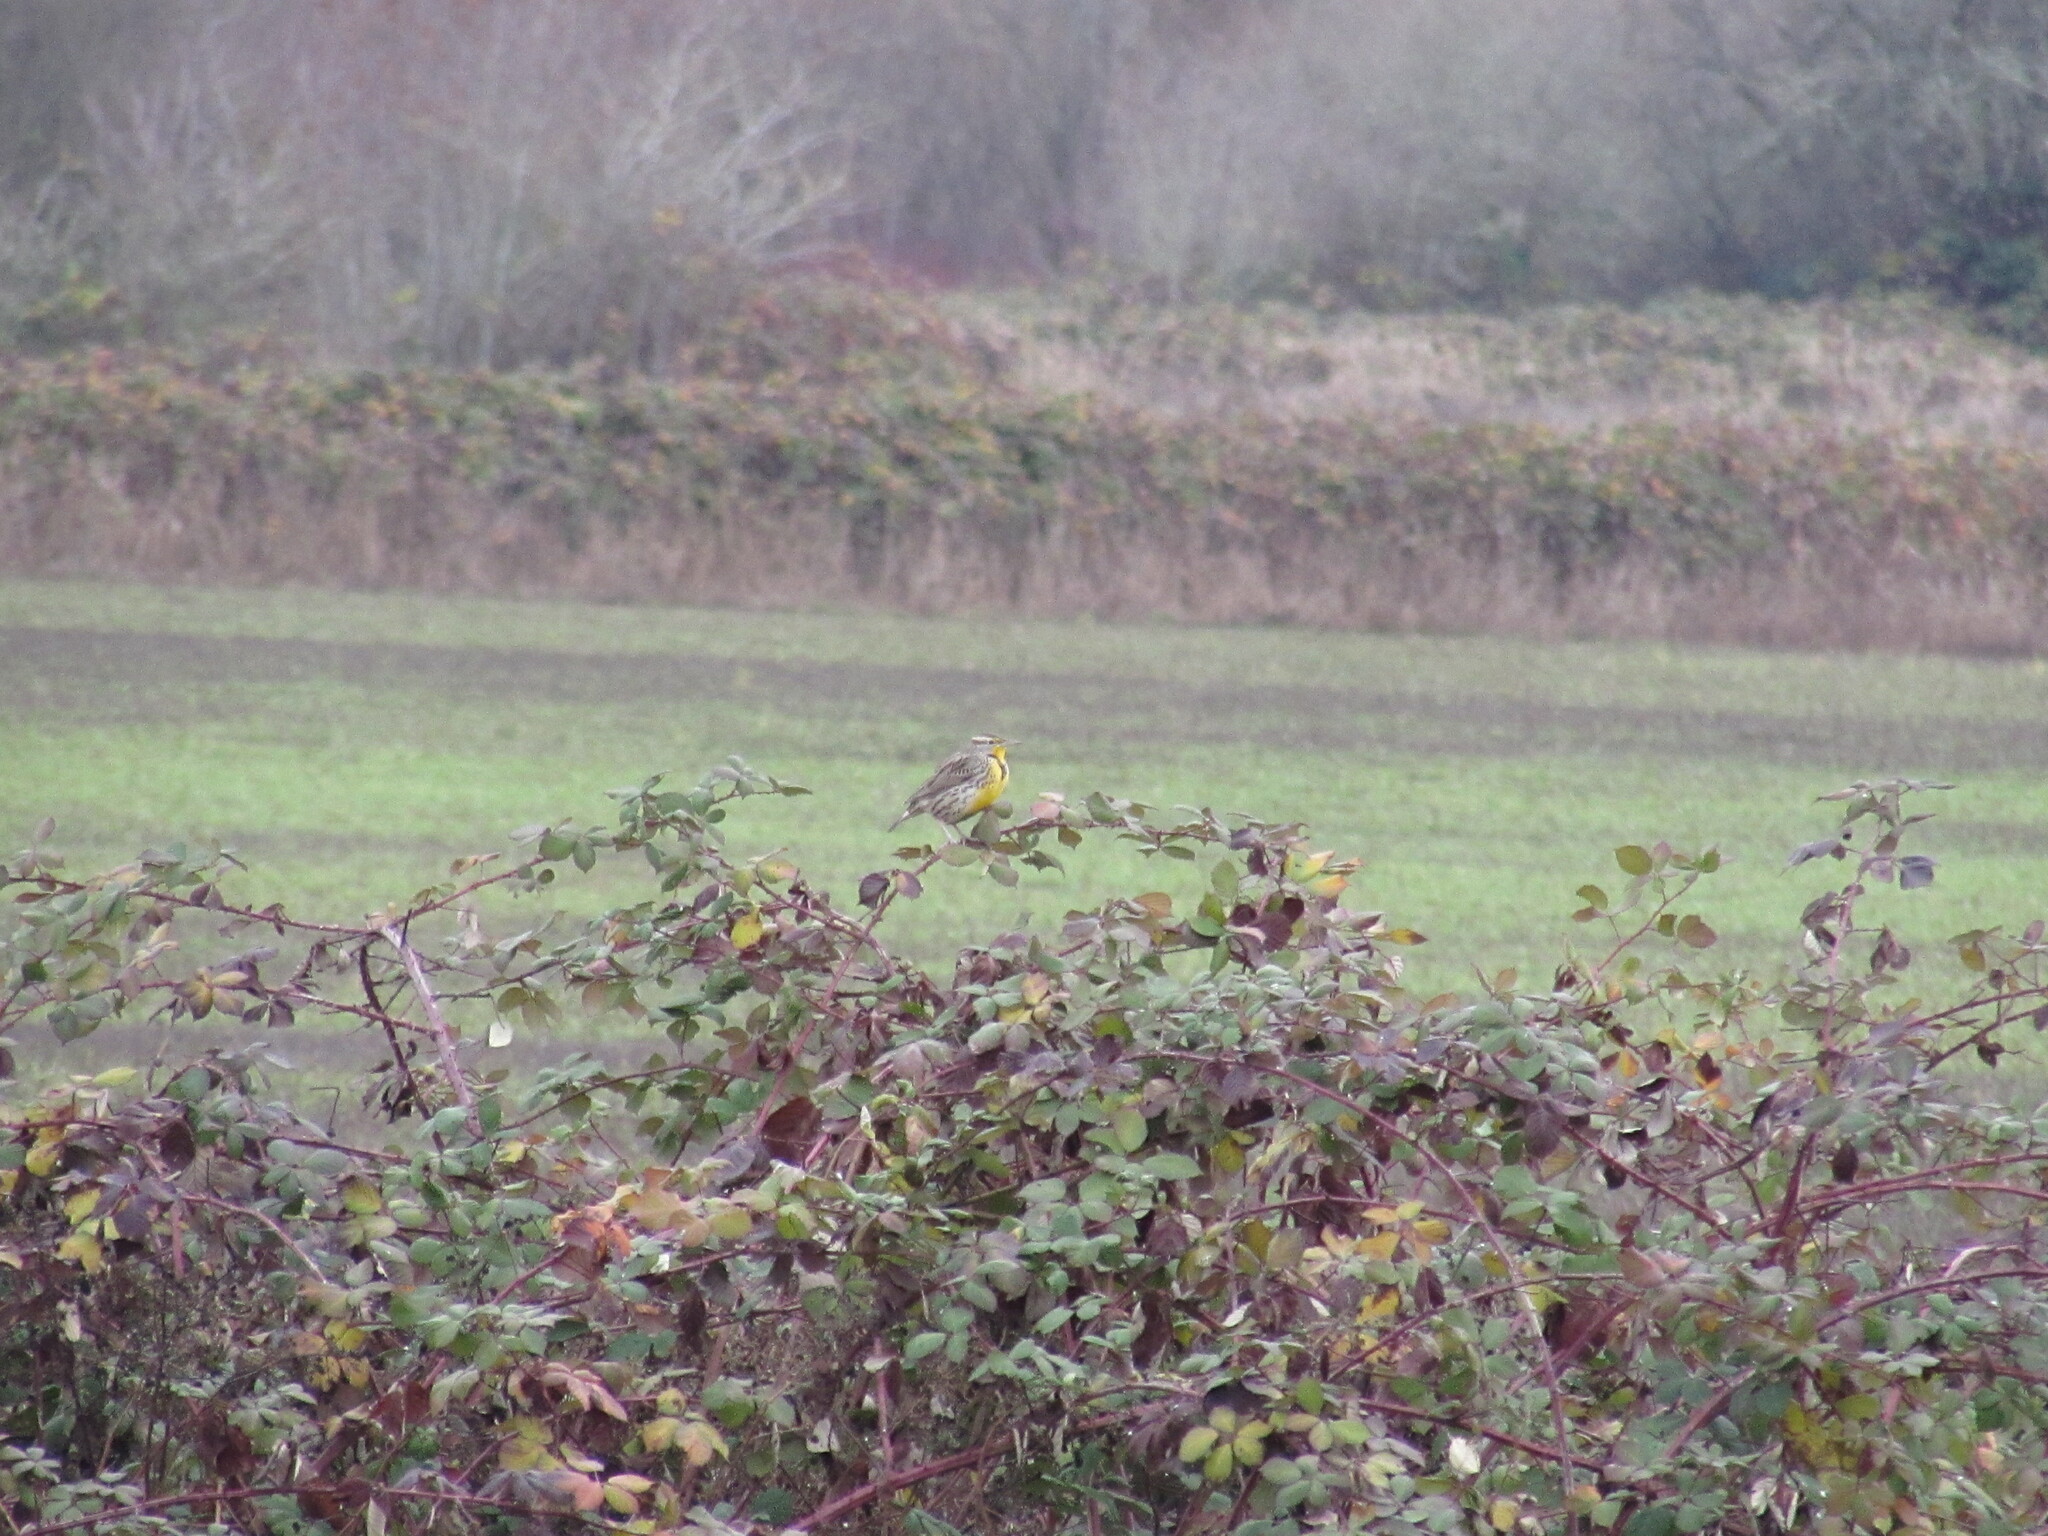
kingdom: Animalia
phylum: Chordata
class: Aves
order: Passeriformes
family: Icteridae
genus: Sturnella
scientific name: Sturnella neglecta
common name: Western meadowlark
